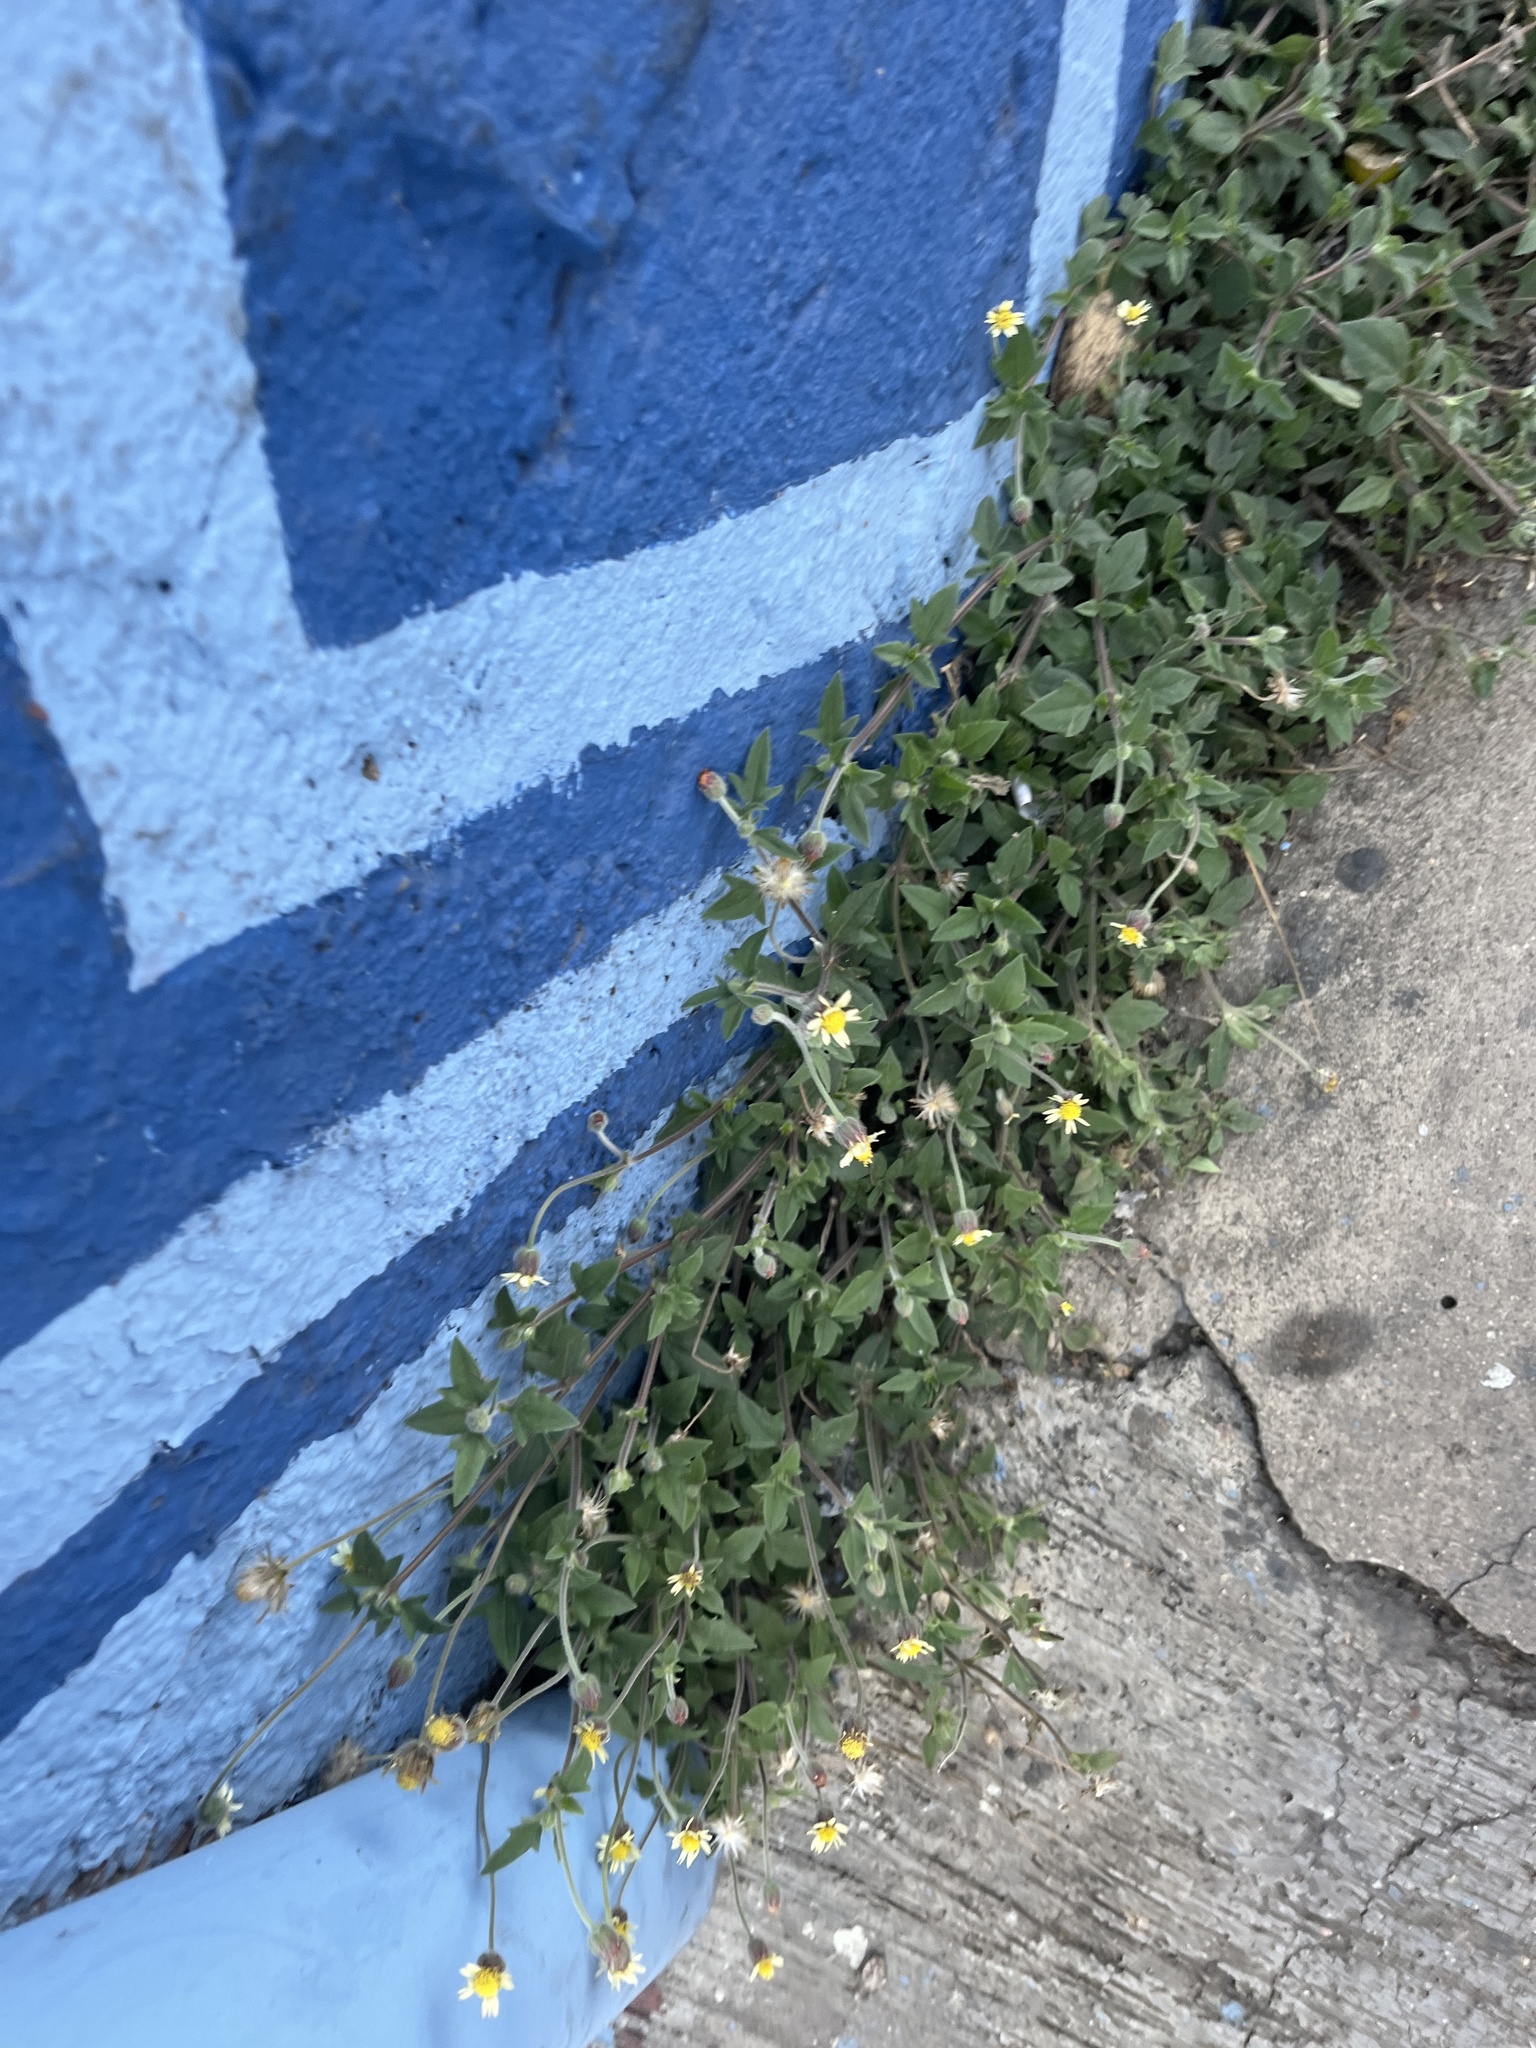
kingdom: Plantae
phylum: Tracheophyta
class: Magnoliopsida
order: Asterales
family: Asteraceae
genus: Tridax
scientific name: Tridax procumbens
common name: Coatbuttons
